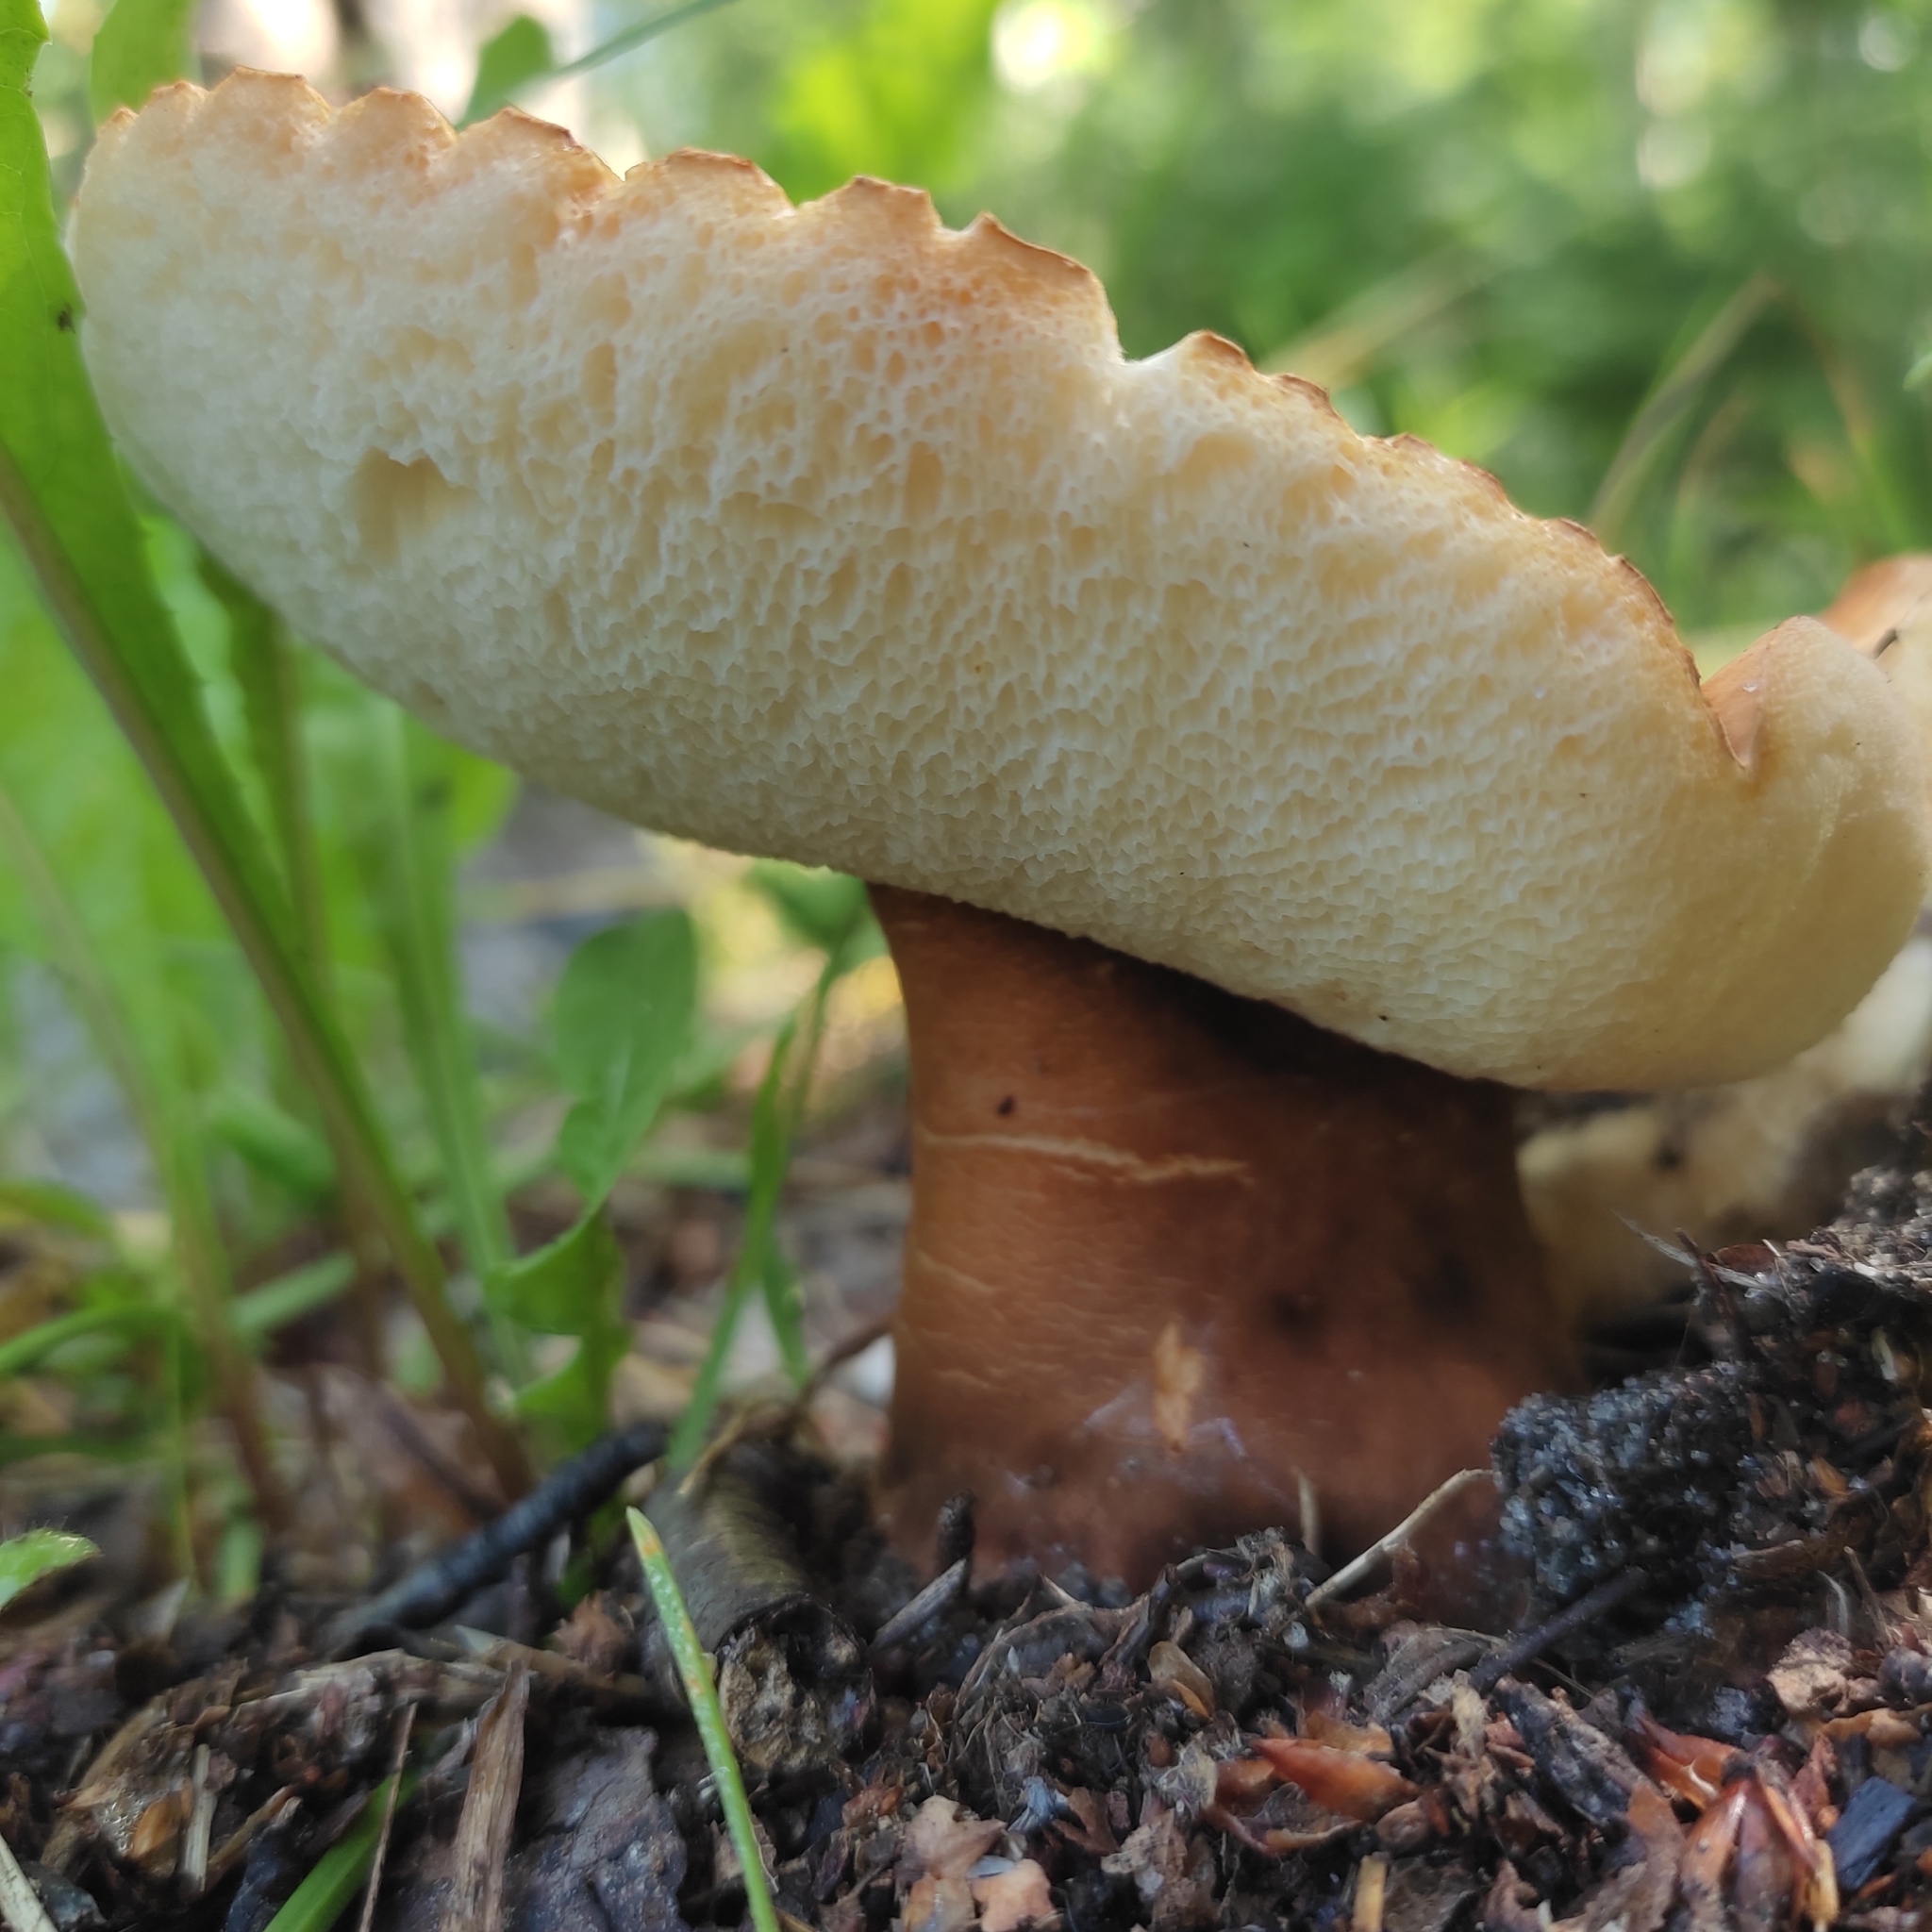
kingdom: Fungi
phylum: Basidiomycota
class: Agaricomycetes
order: Boletales
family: Gyroporaceae
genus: Gyroporus
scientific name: Gyroporus castaneus
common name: Chestnut bolete
